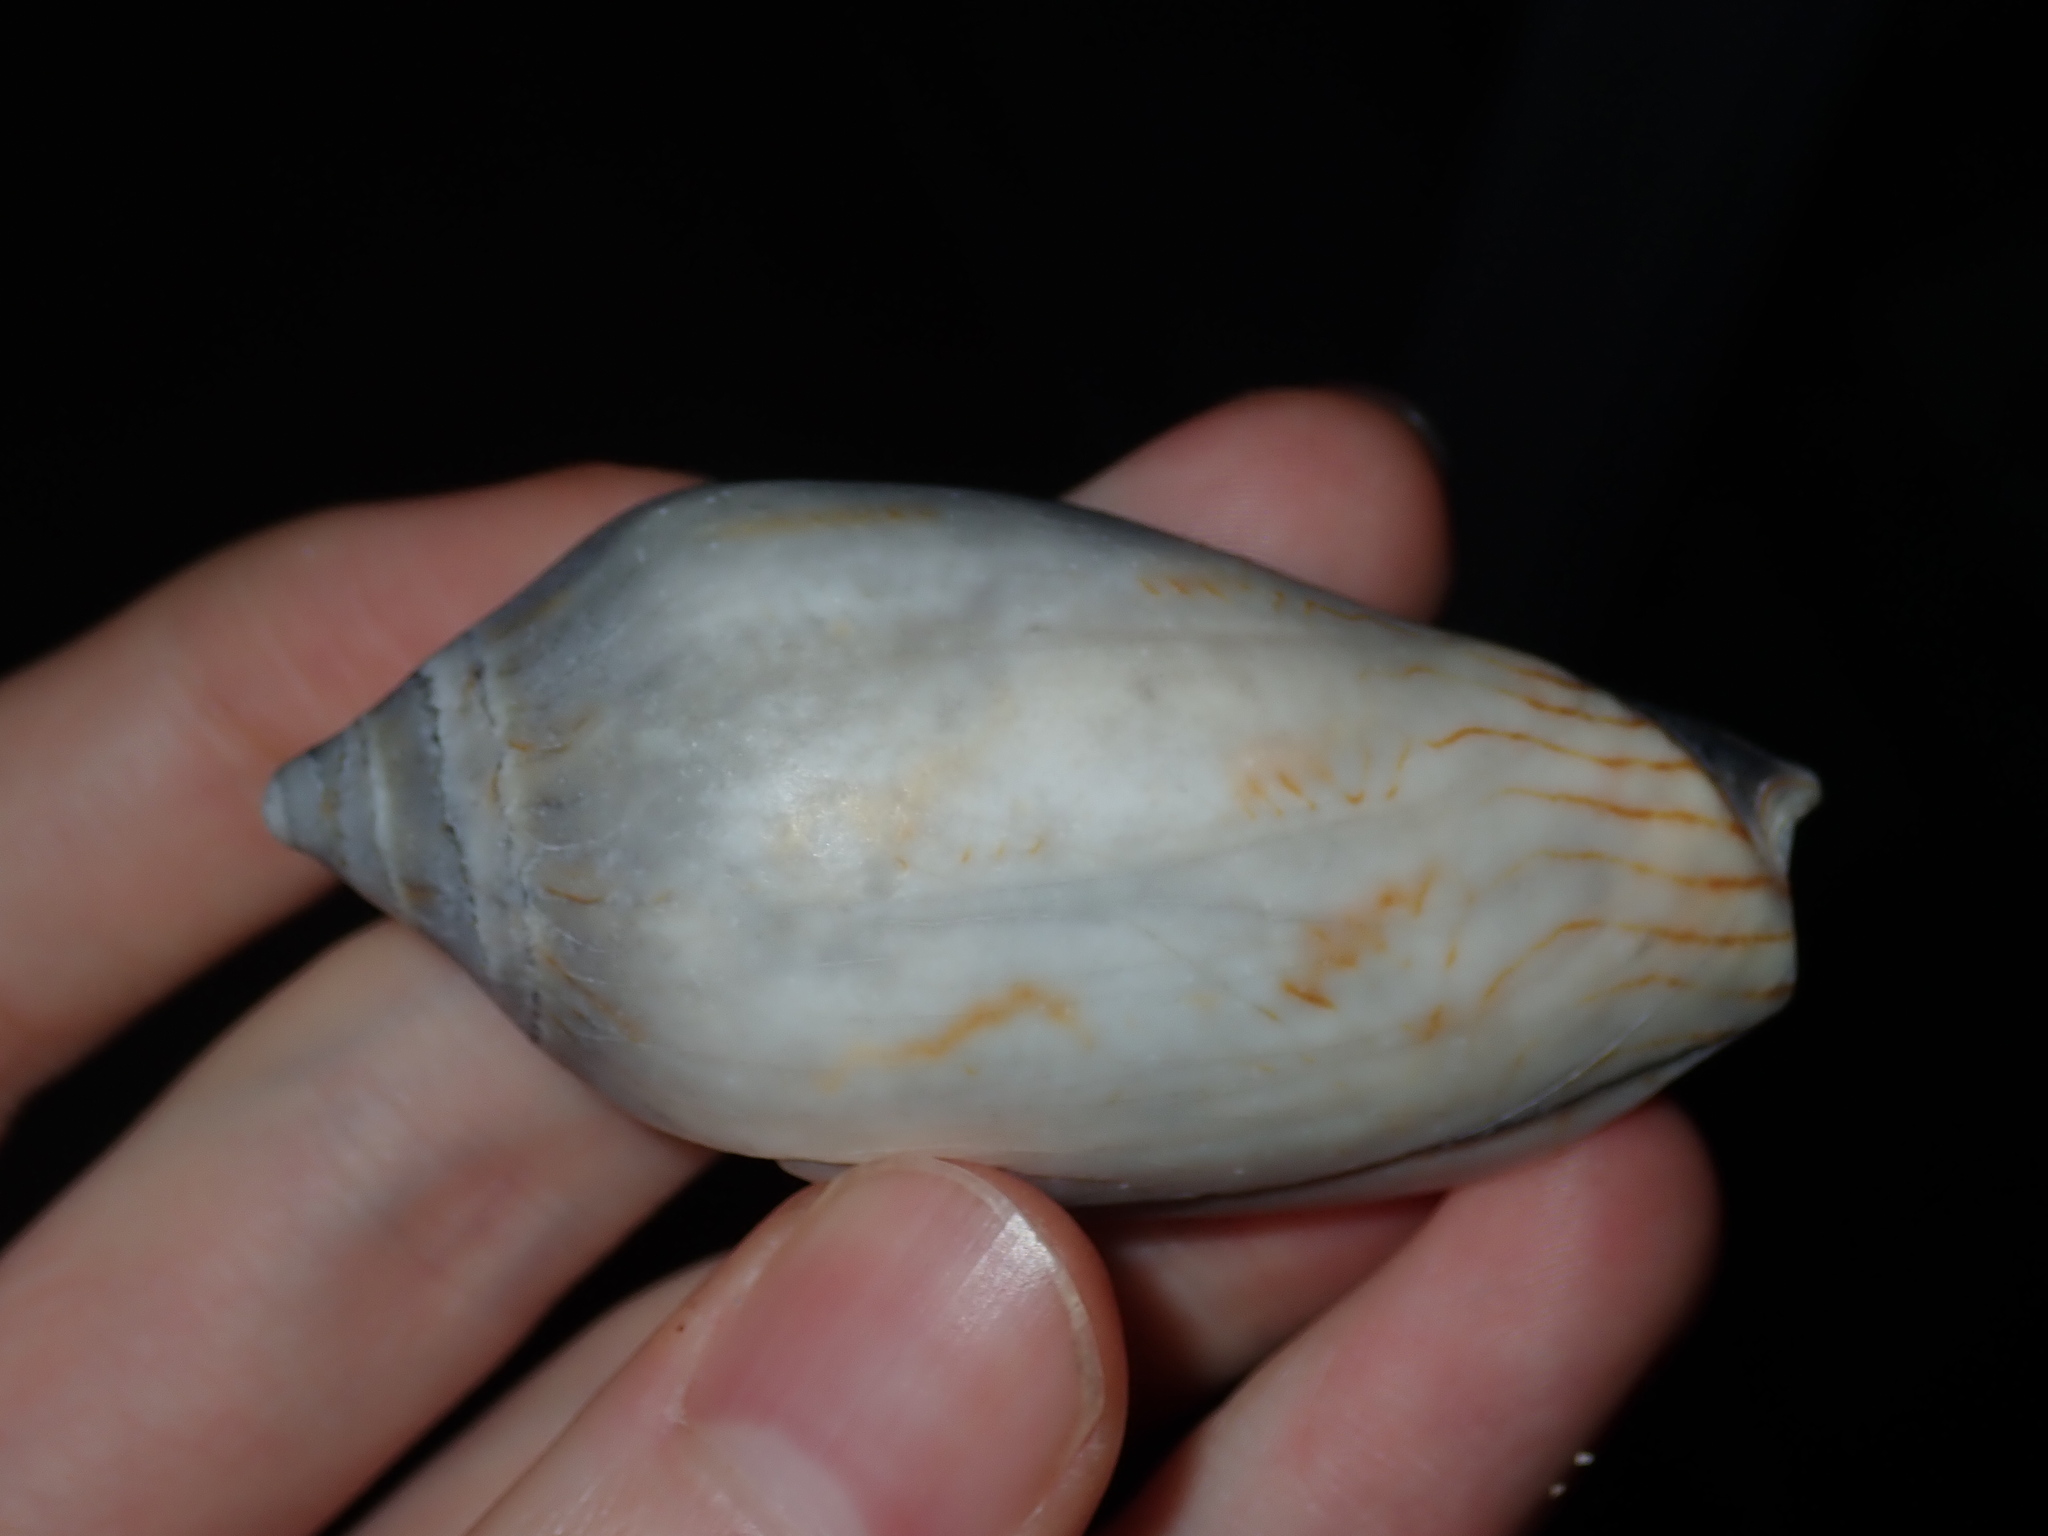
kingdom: Animalia
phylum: Mollusca
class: Gastropoda
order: Neogastropoda
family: Volutidae
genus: Amoria
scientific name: Amoria undulata
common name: Waved volute
